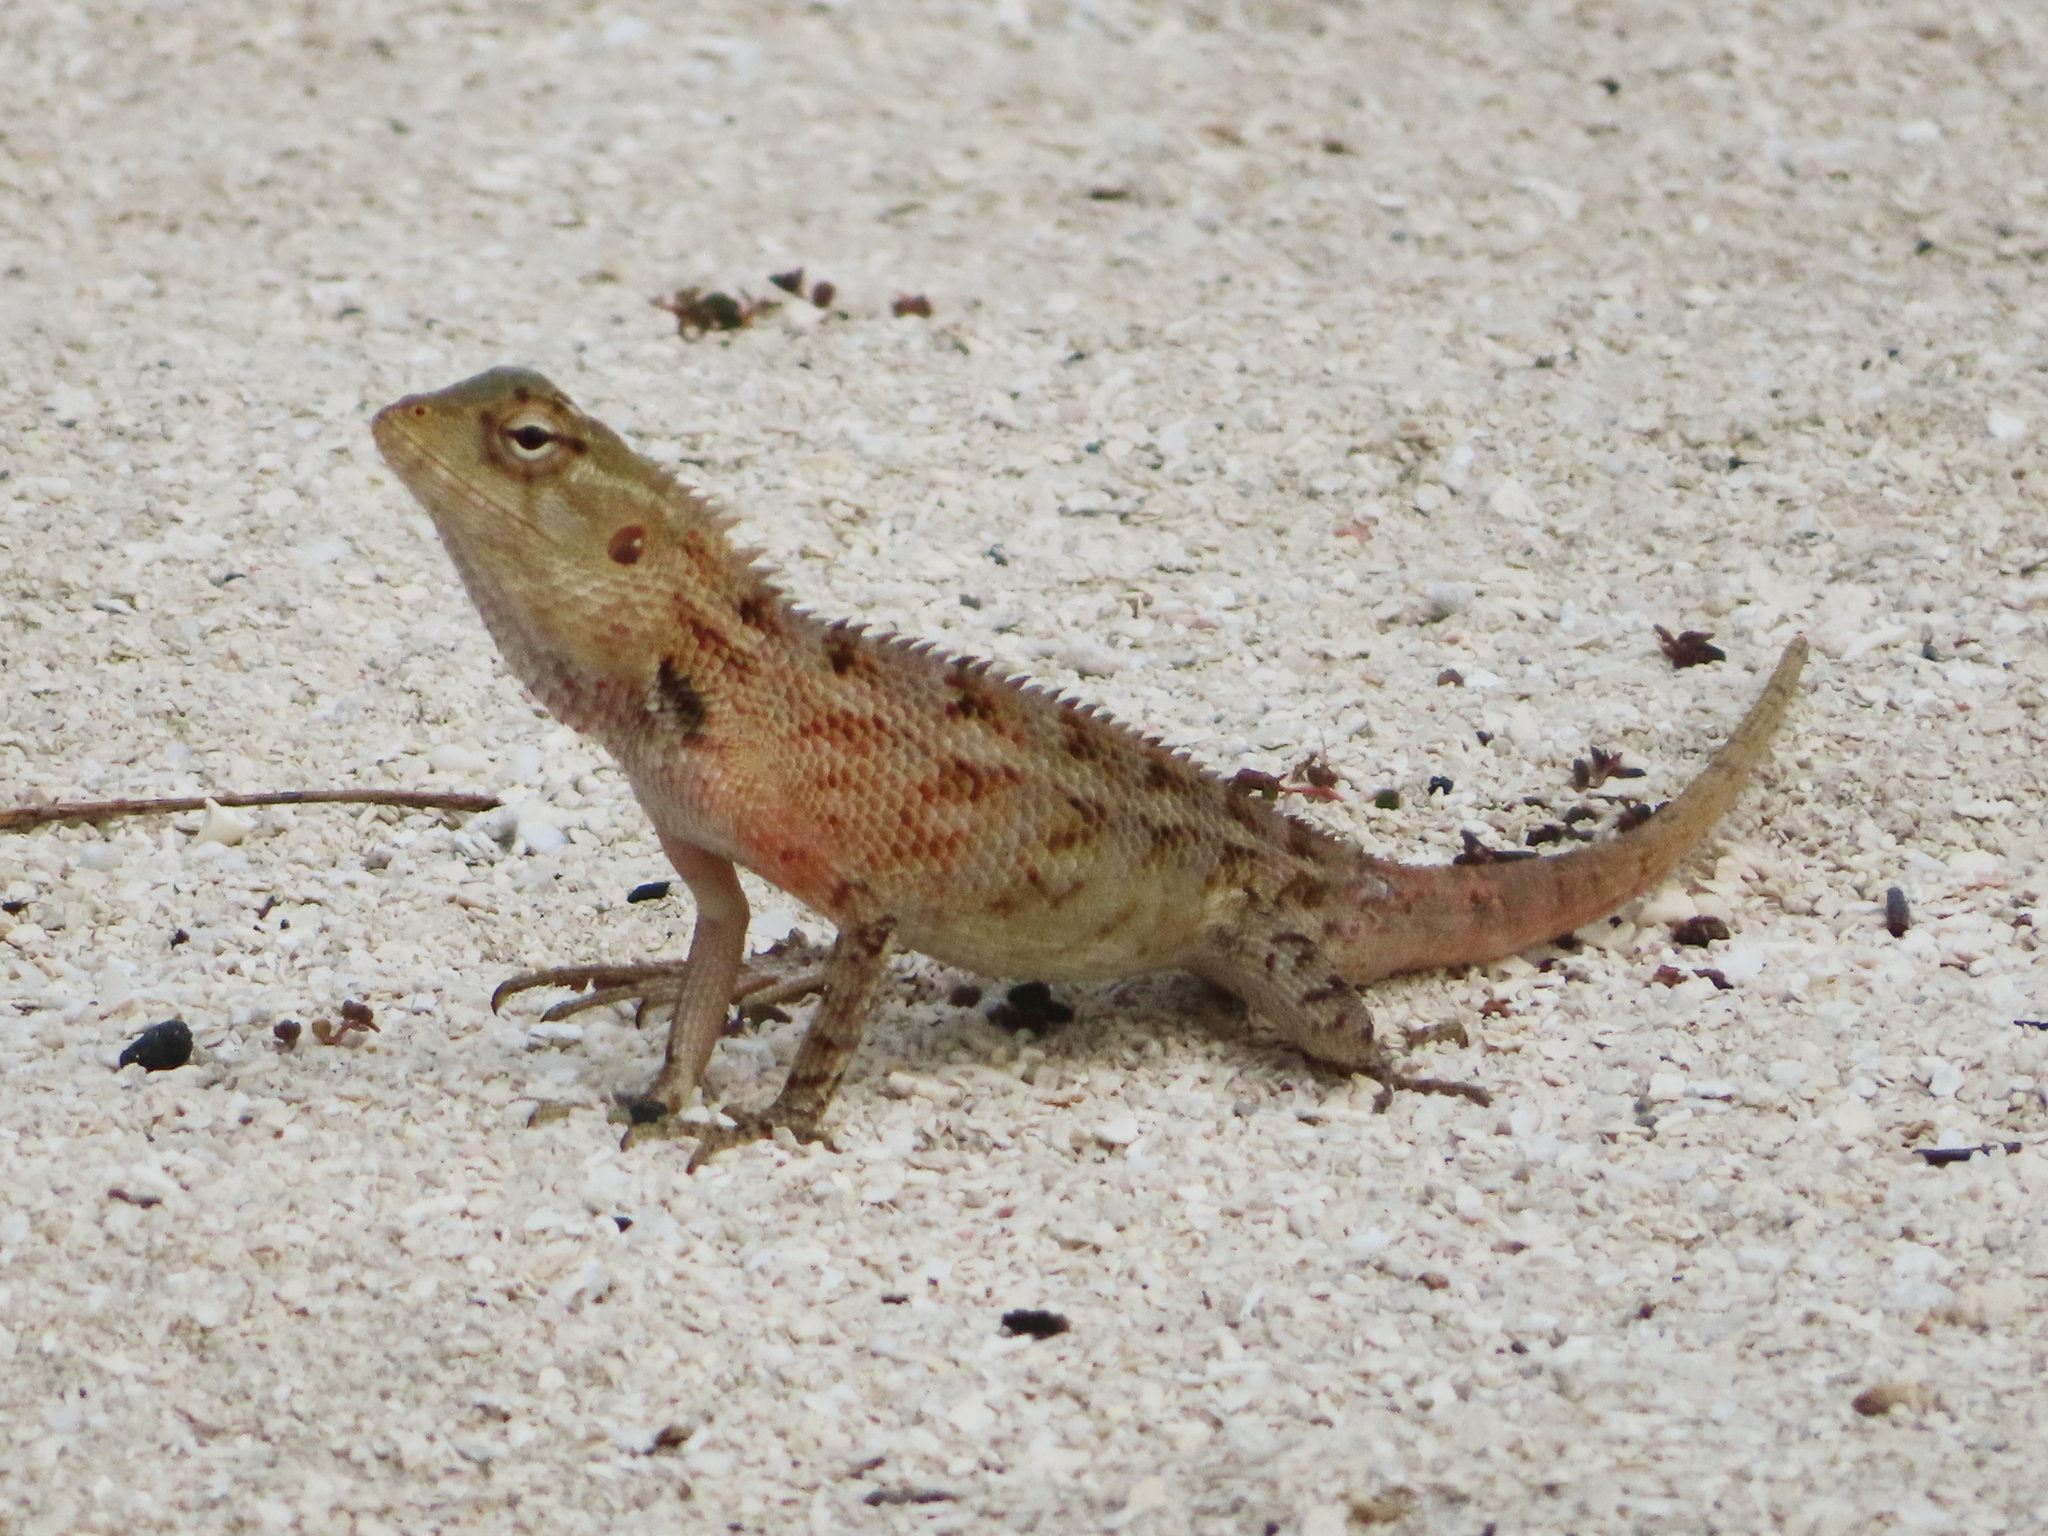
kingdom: Animalia
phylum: Chordata
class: Squamata
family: Agamidae
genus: Calotes
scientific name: Calotes versicolor
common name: Oriental garden lizard
